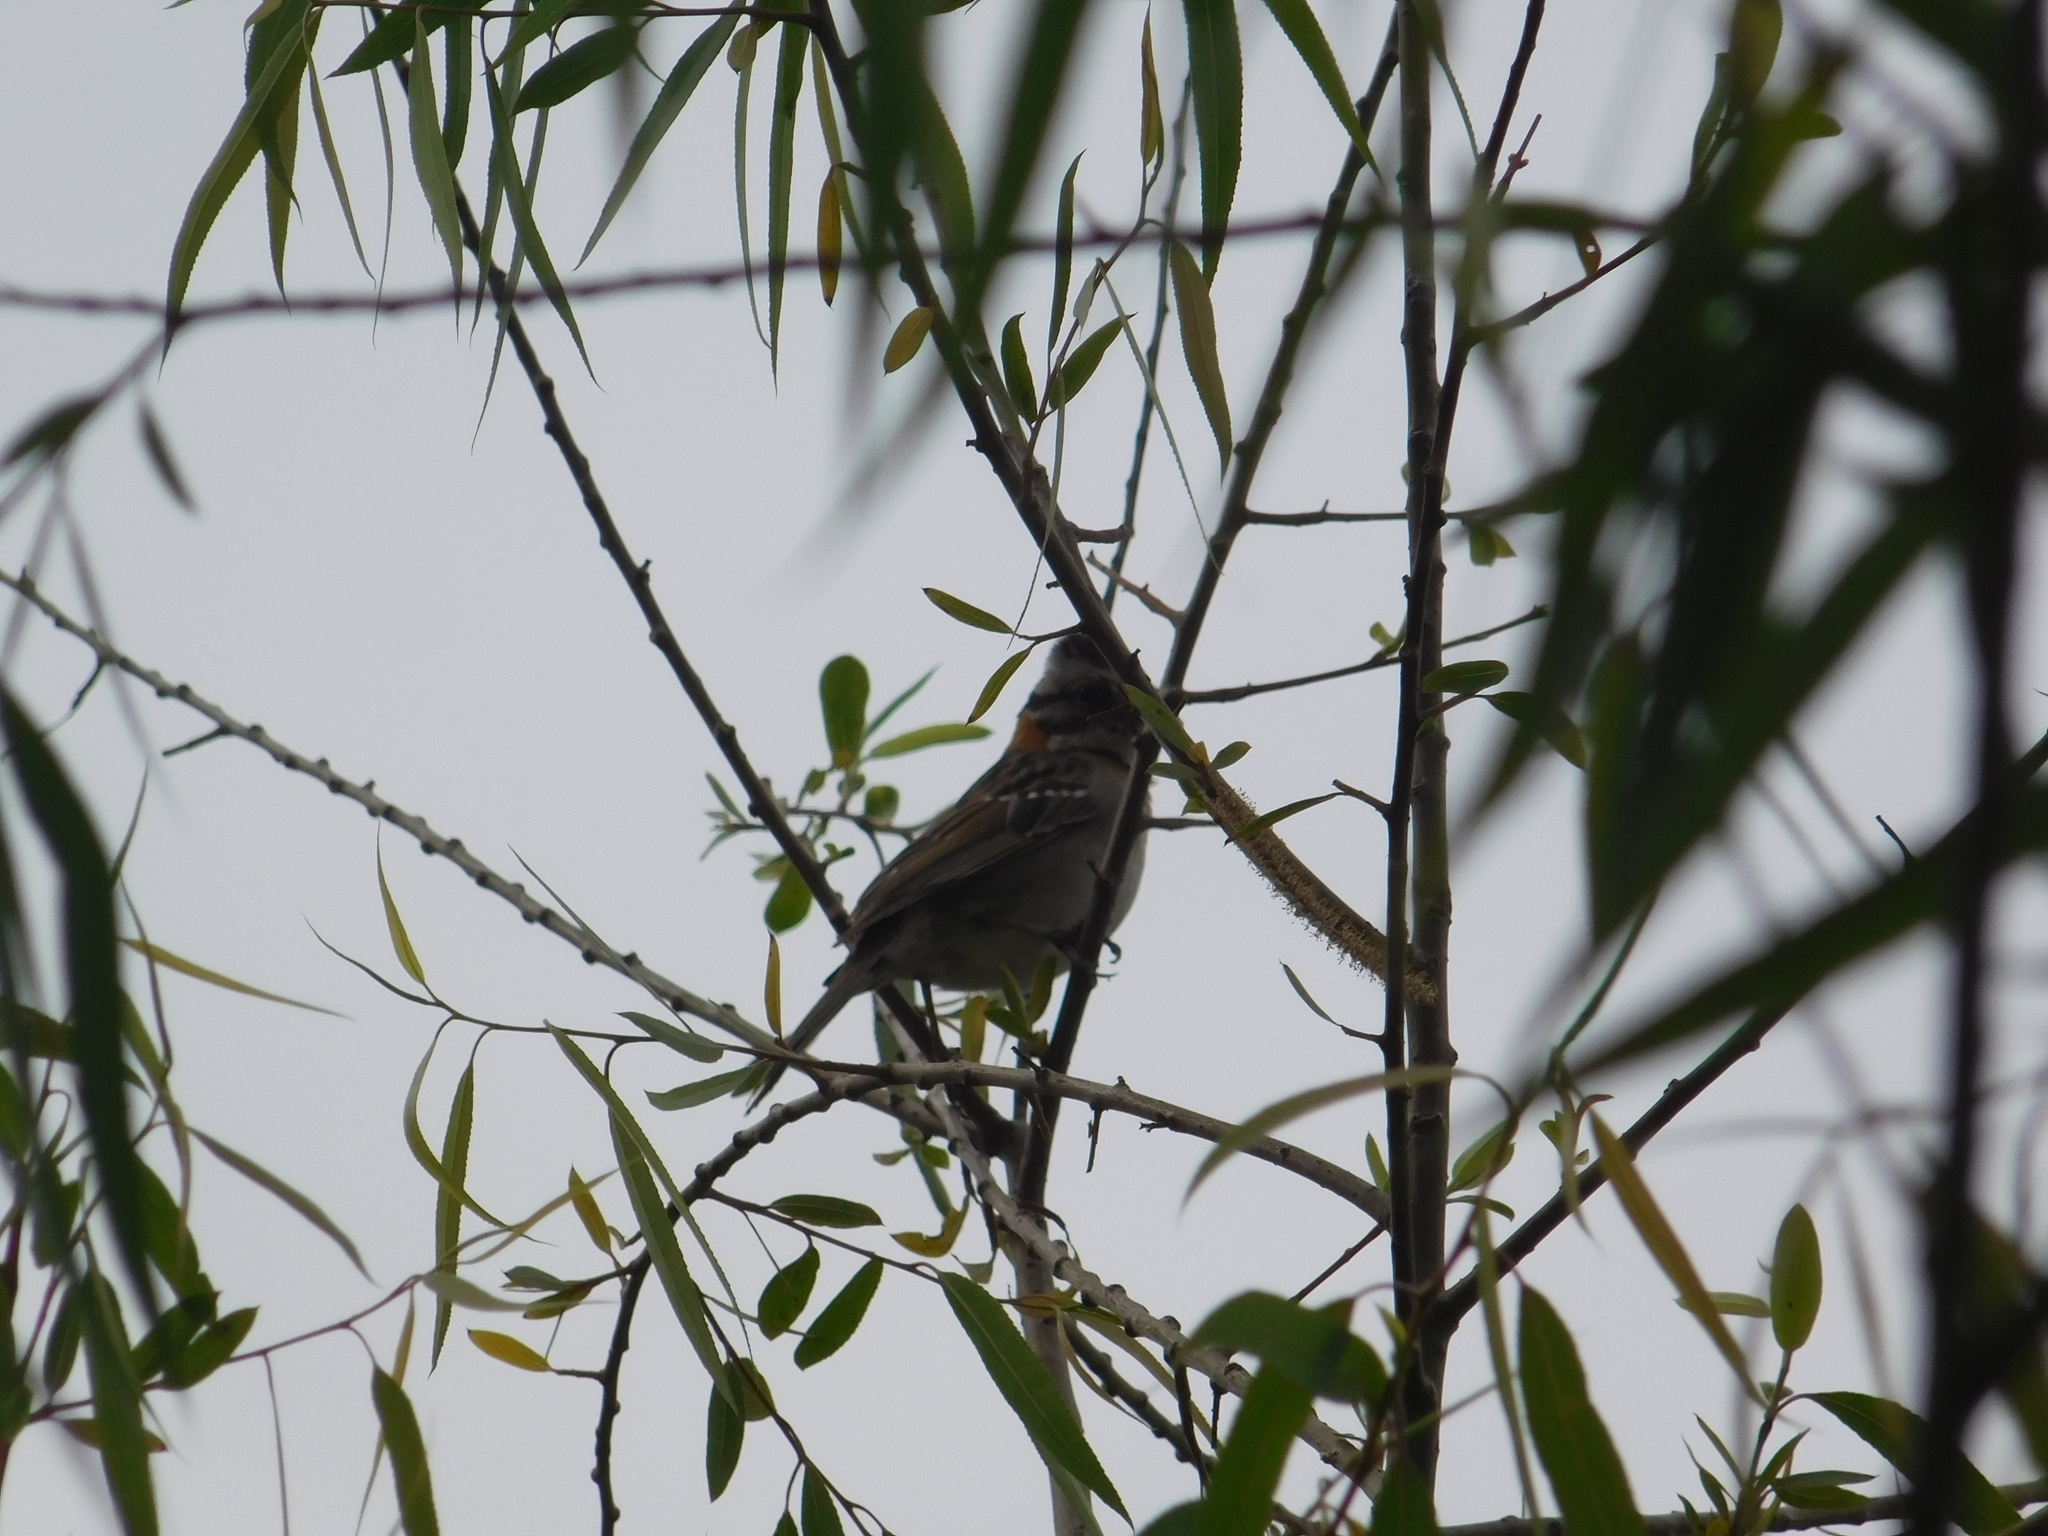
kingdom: Animalia
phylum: Chordata
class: Aves
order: Passeriformes
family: Passerellidae
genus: Zonotrichia
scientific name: Zonotrichia capensis
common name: Rufous-collared sparrow
